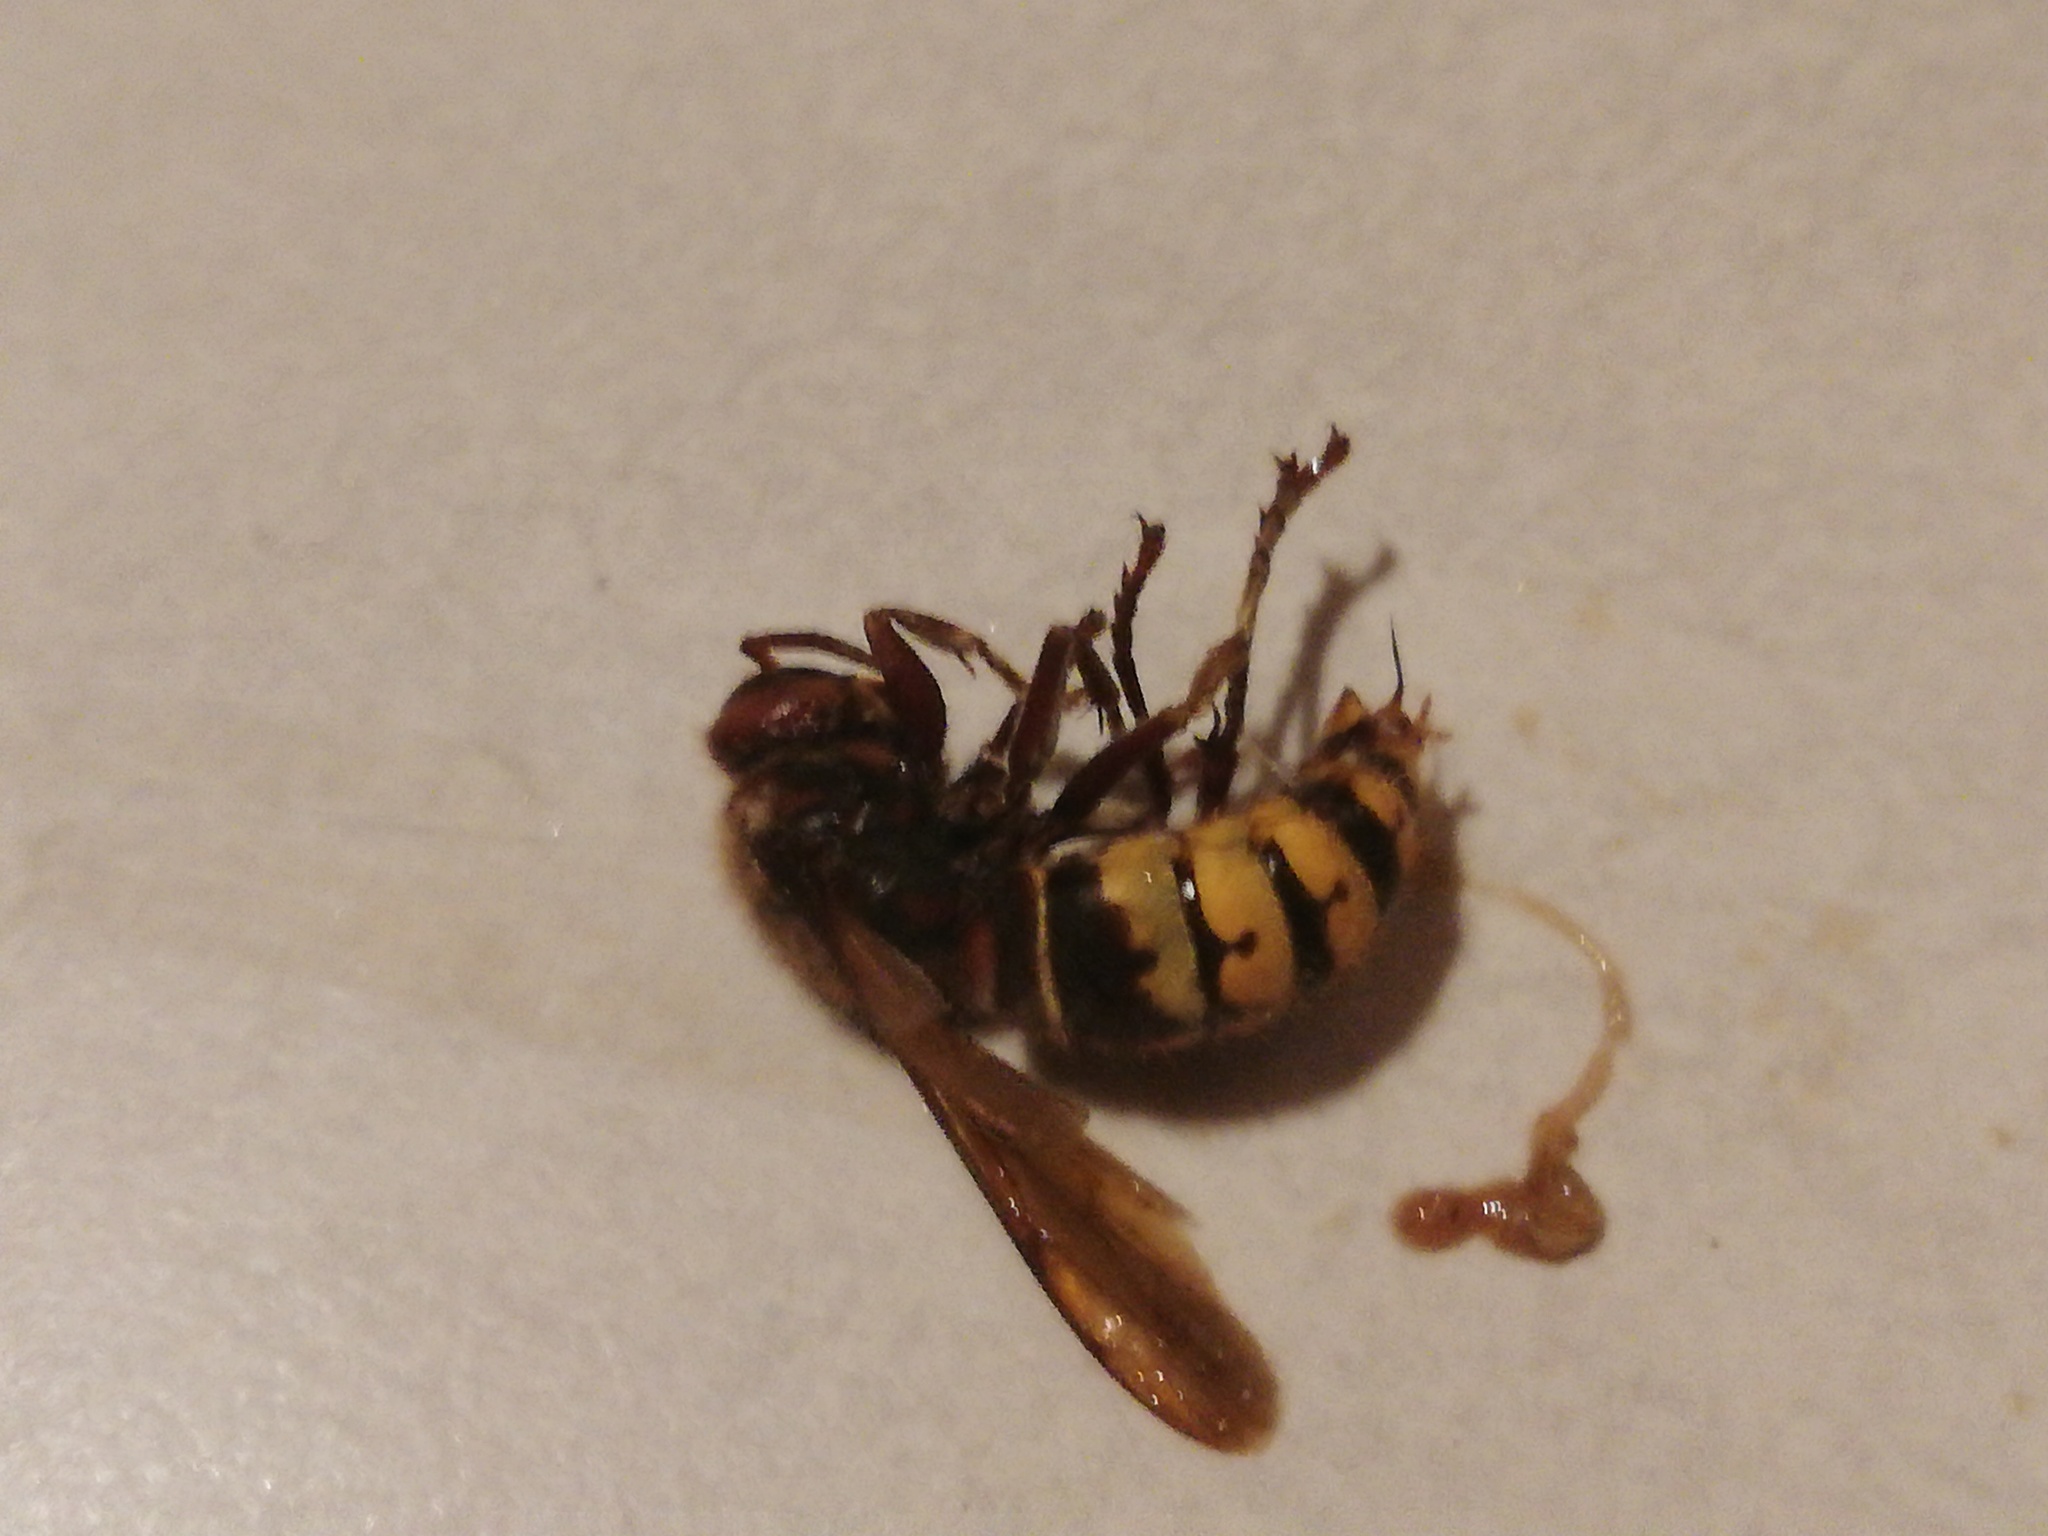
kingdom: Animalia
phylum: Arthropoda
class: Insecta
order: Hymenoptera
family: Vespidae
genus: Vespa
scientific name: Vespa crabro
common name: Hornet
